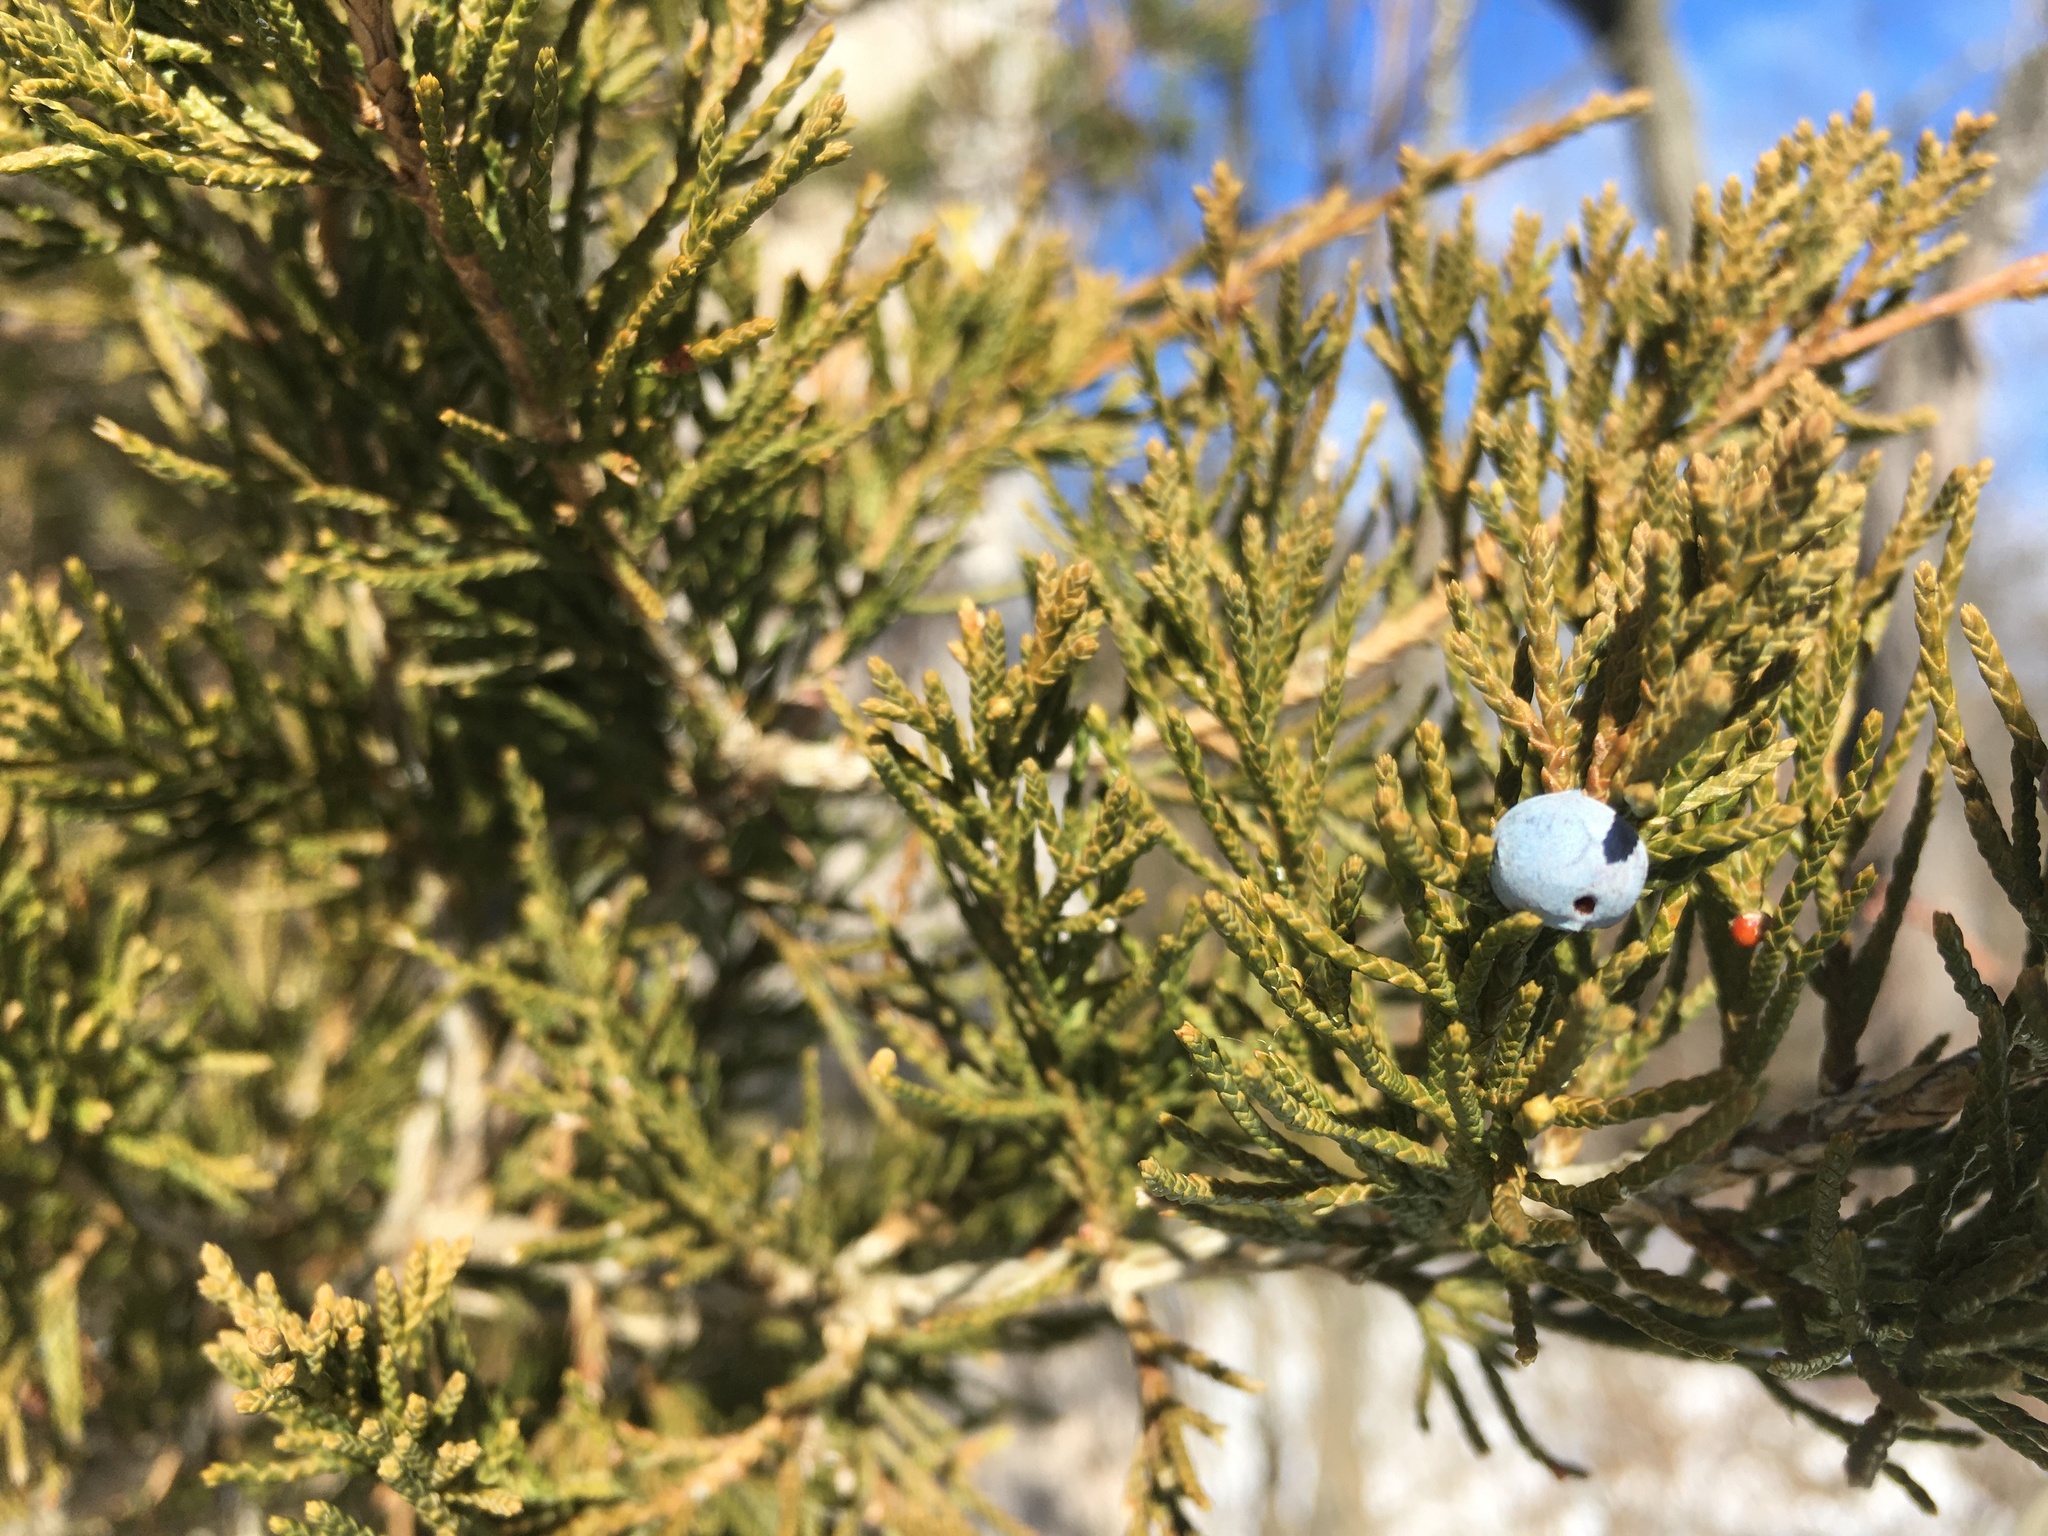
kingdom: Plantae
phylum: Tracheophyta
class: Pinopsida
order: Pinales
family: Cupressaceae
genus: Juniperus
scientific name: Juniperus virginiana
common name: Red juniper
